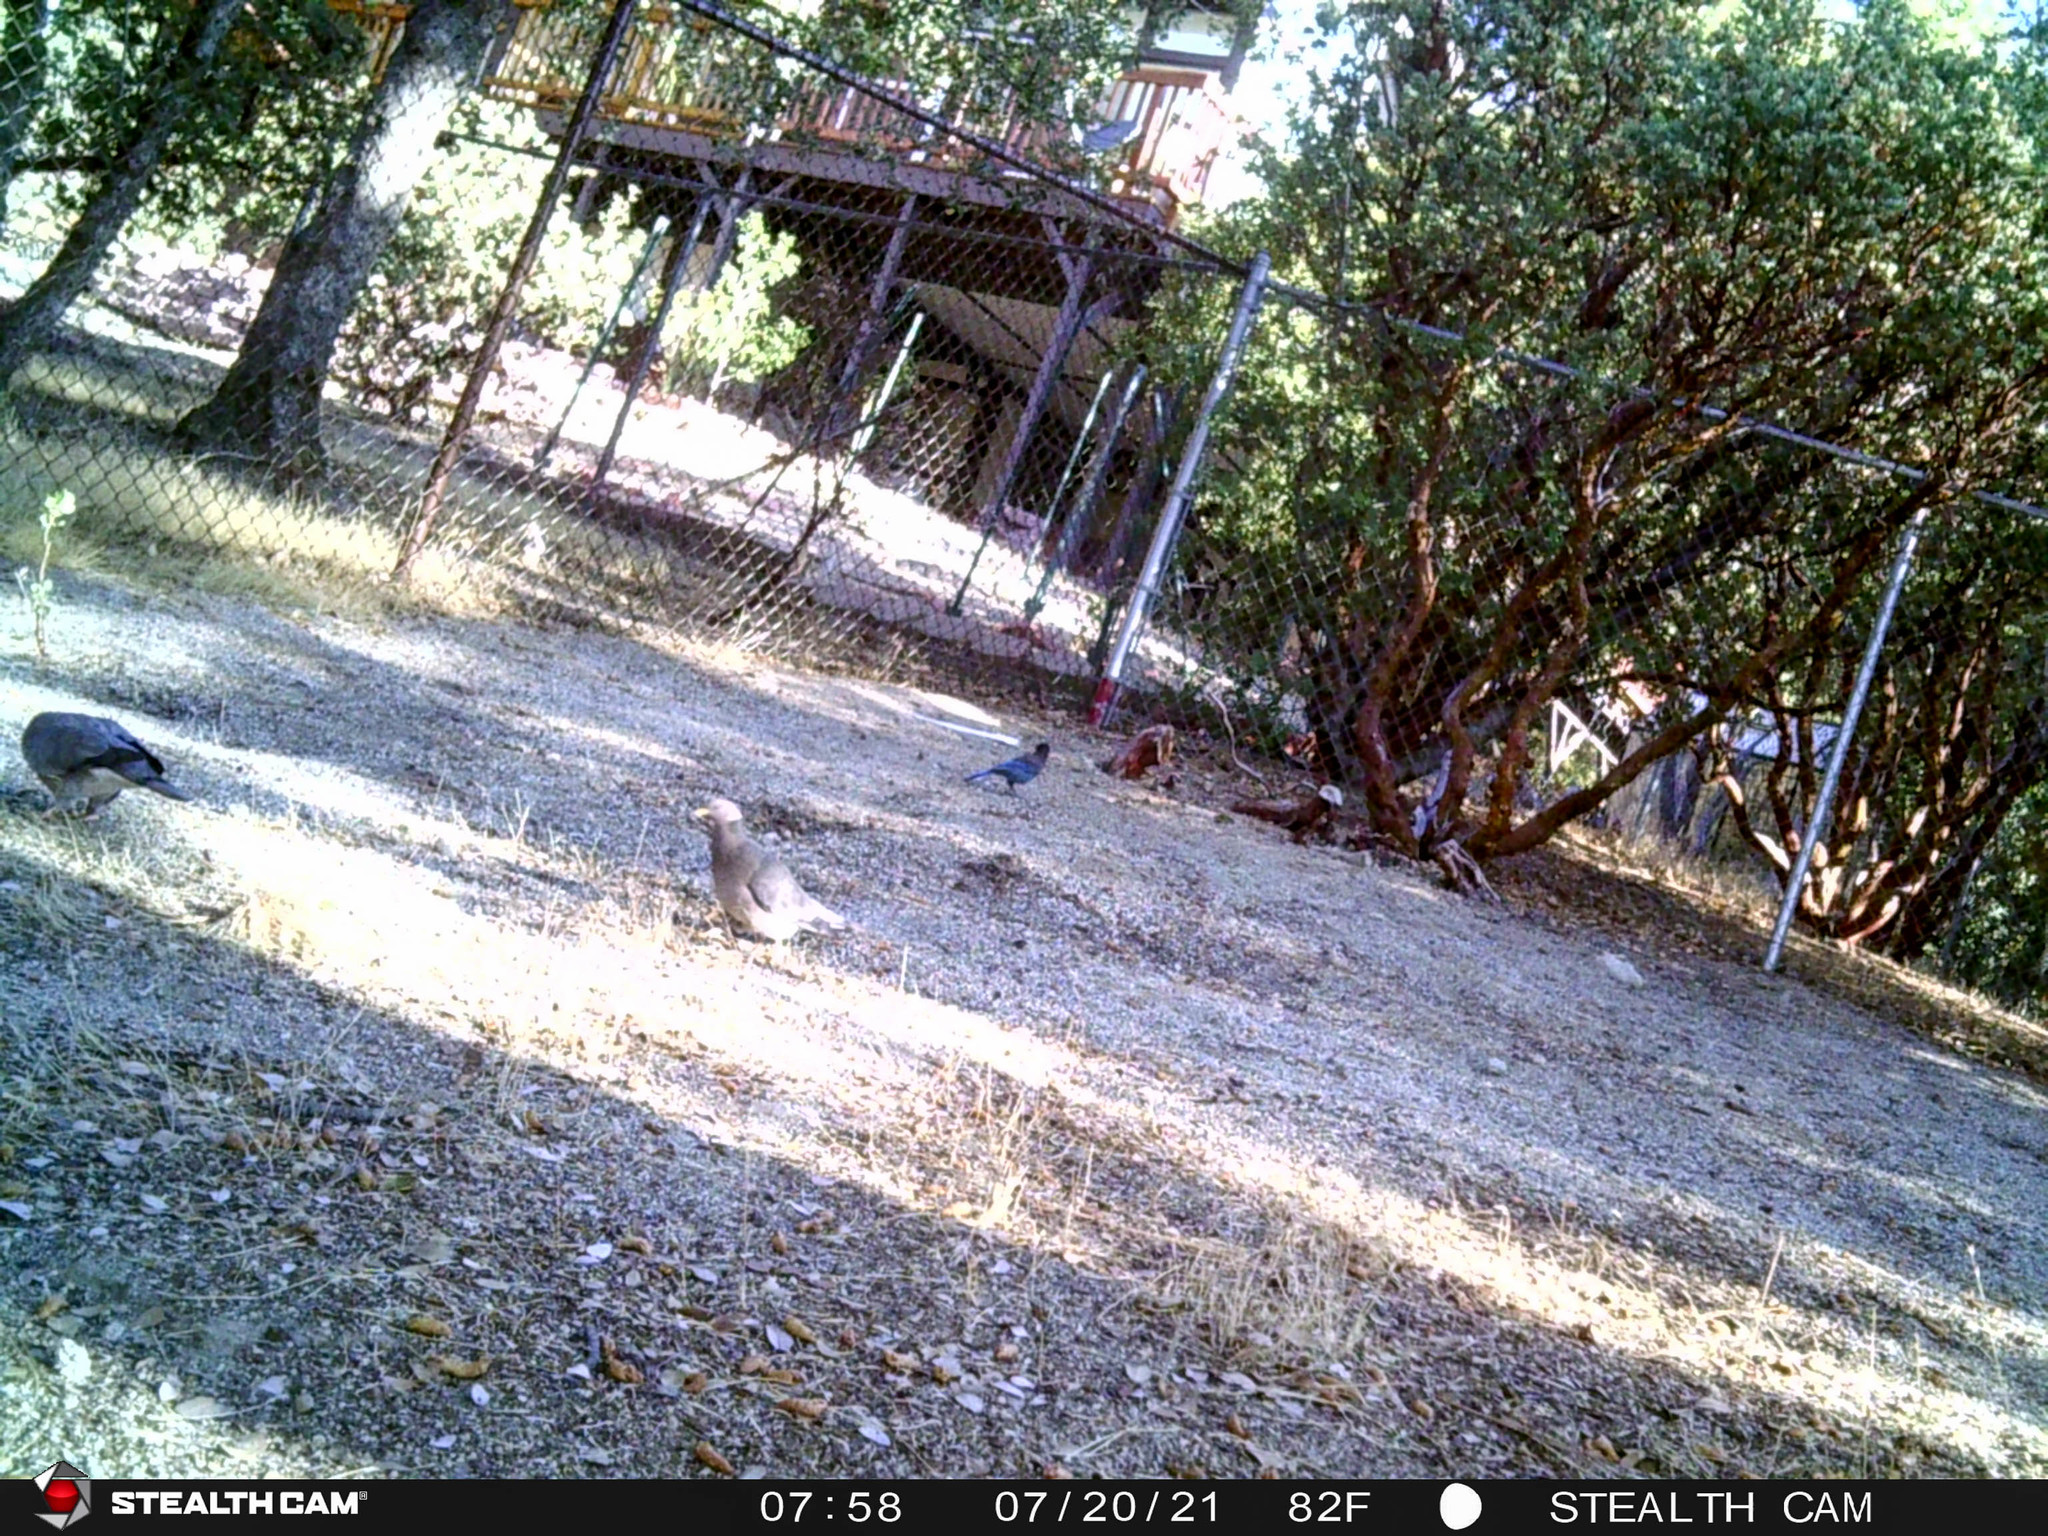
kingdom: Animalia
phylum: Chordata
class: Aves
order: Columbiformes
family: Columbidae
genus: Patagioenas
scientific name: Patagioenas fasciata
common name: Band-tailed pigeon
